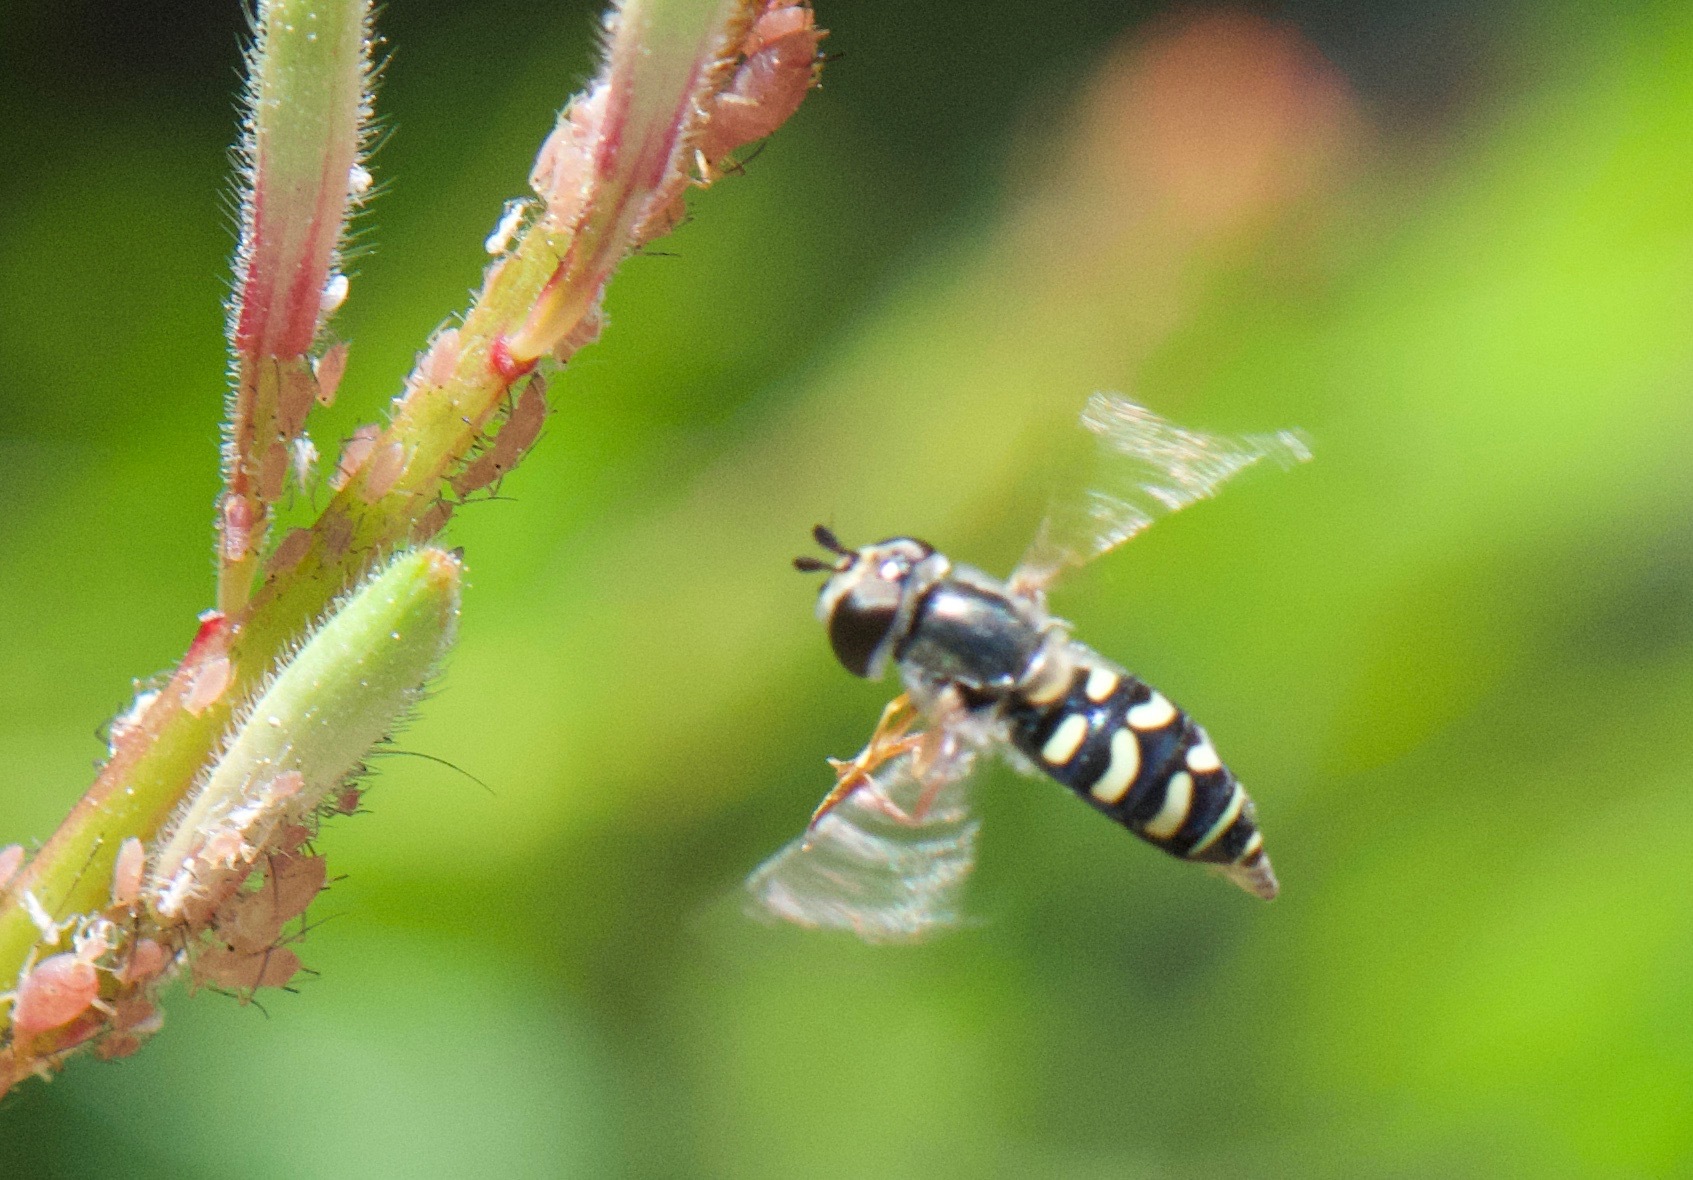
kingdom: Animalia
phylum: Arthropoda
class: Insecta
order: Diptera
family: Syrphidae
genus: Eupeodes
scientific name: Eupeodes volucris
